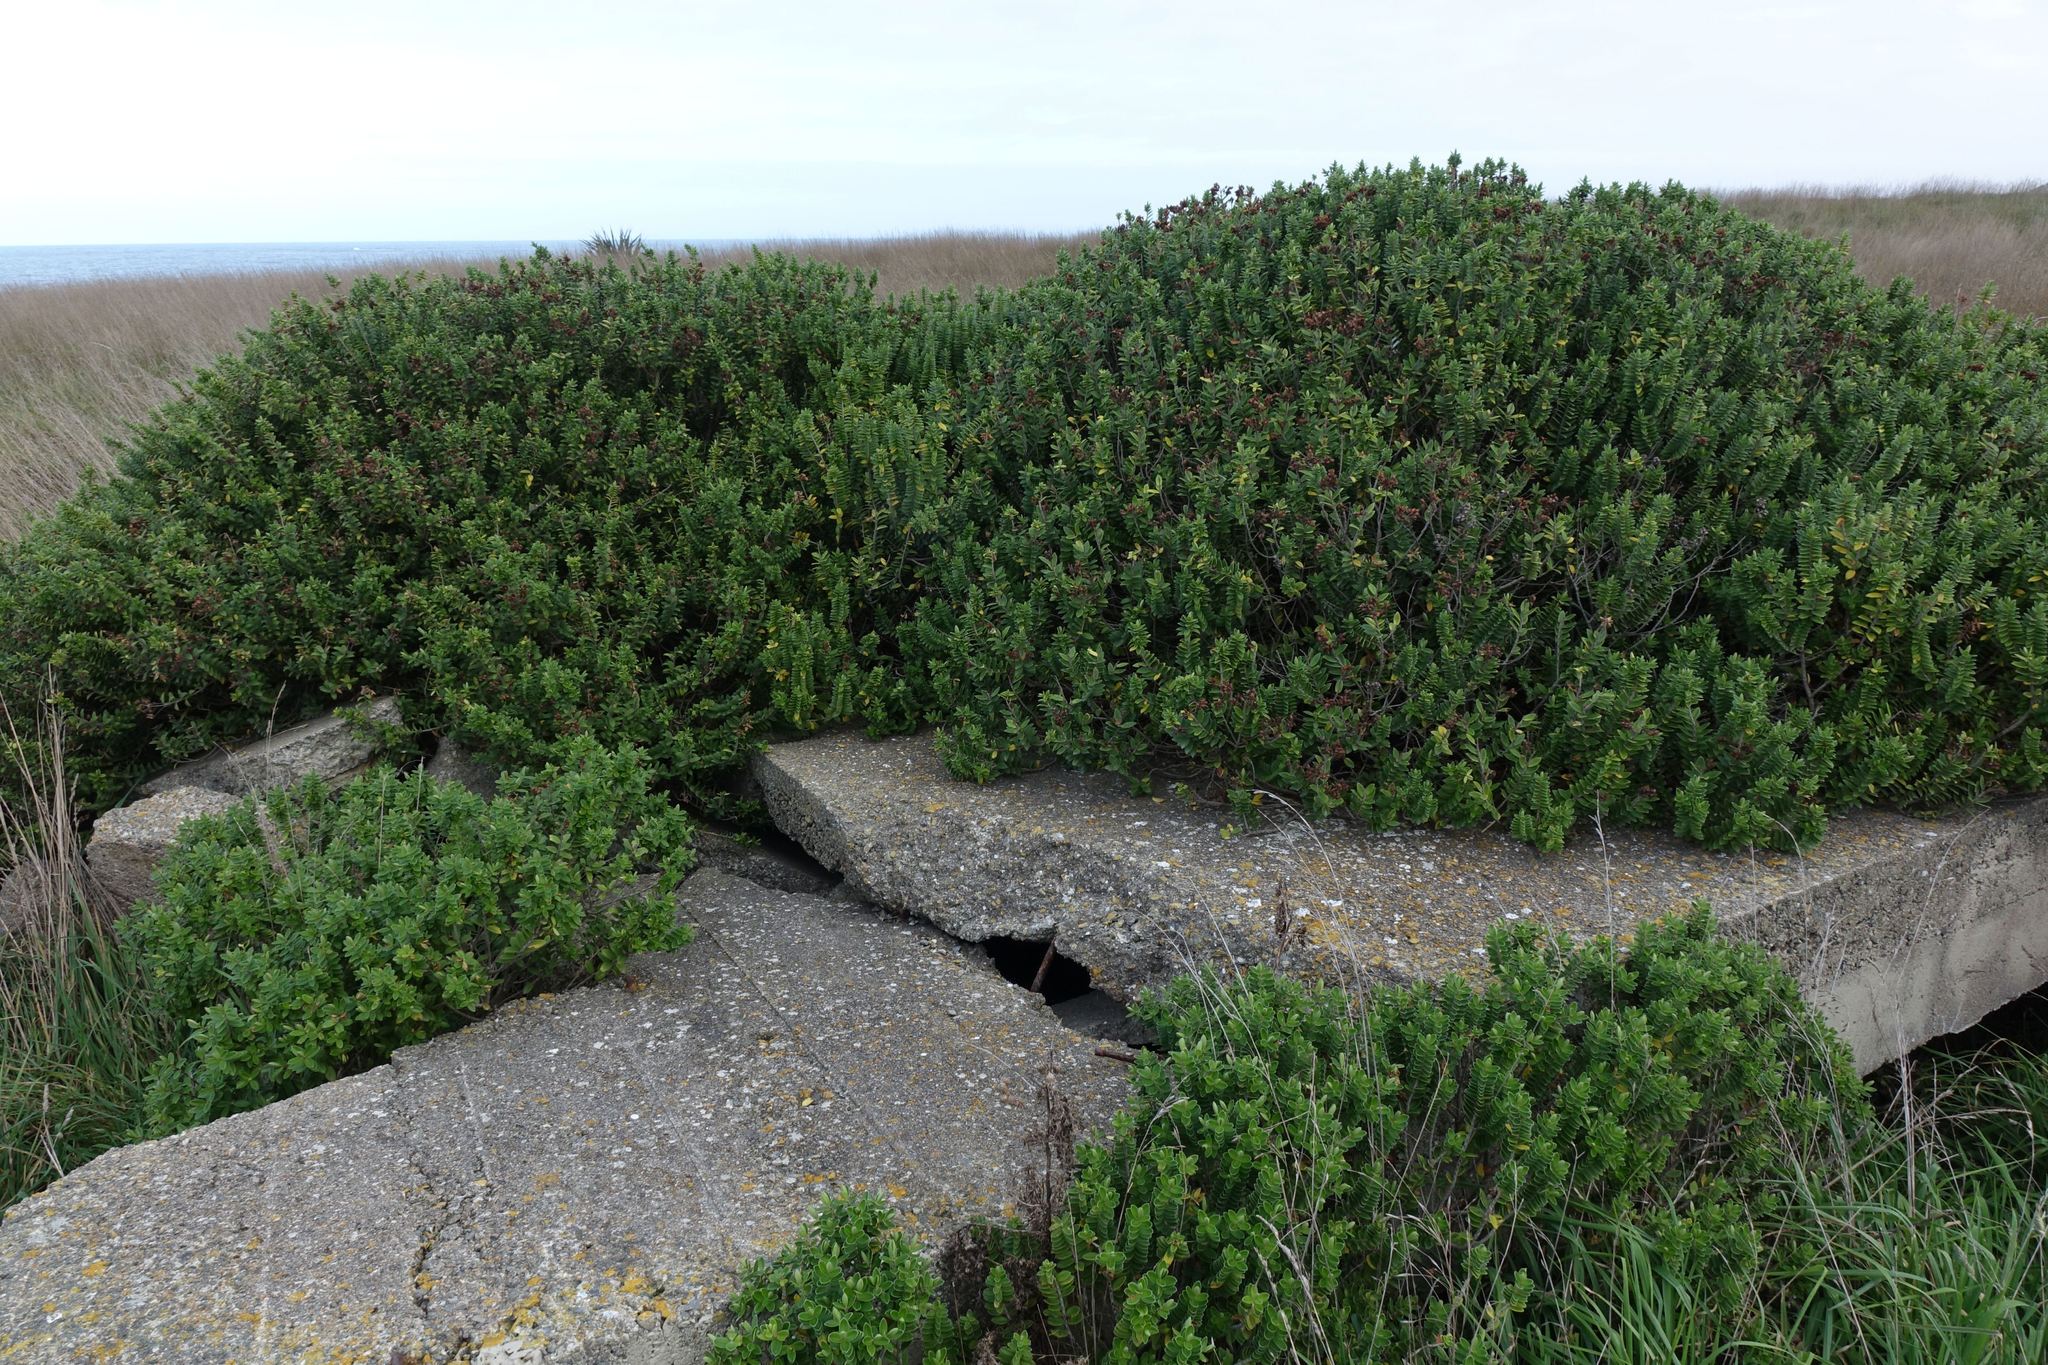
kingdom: Plantae
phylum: Tracheophyta
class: Magnoliopsida
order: Lamiales
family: Plantaginaceae
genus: Veronica
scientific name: Veronica elliptica
